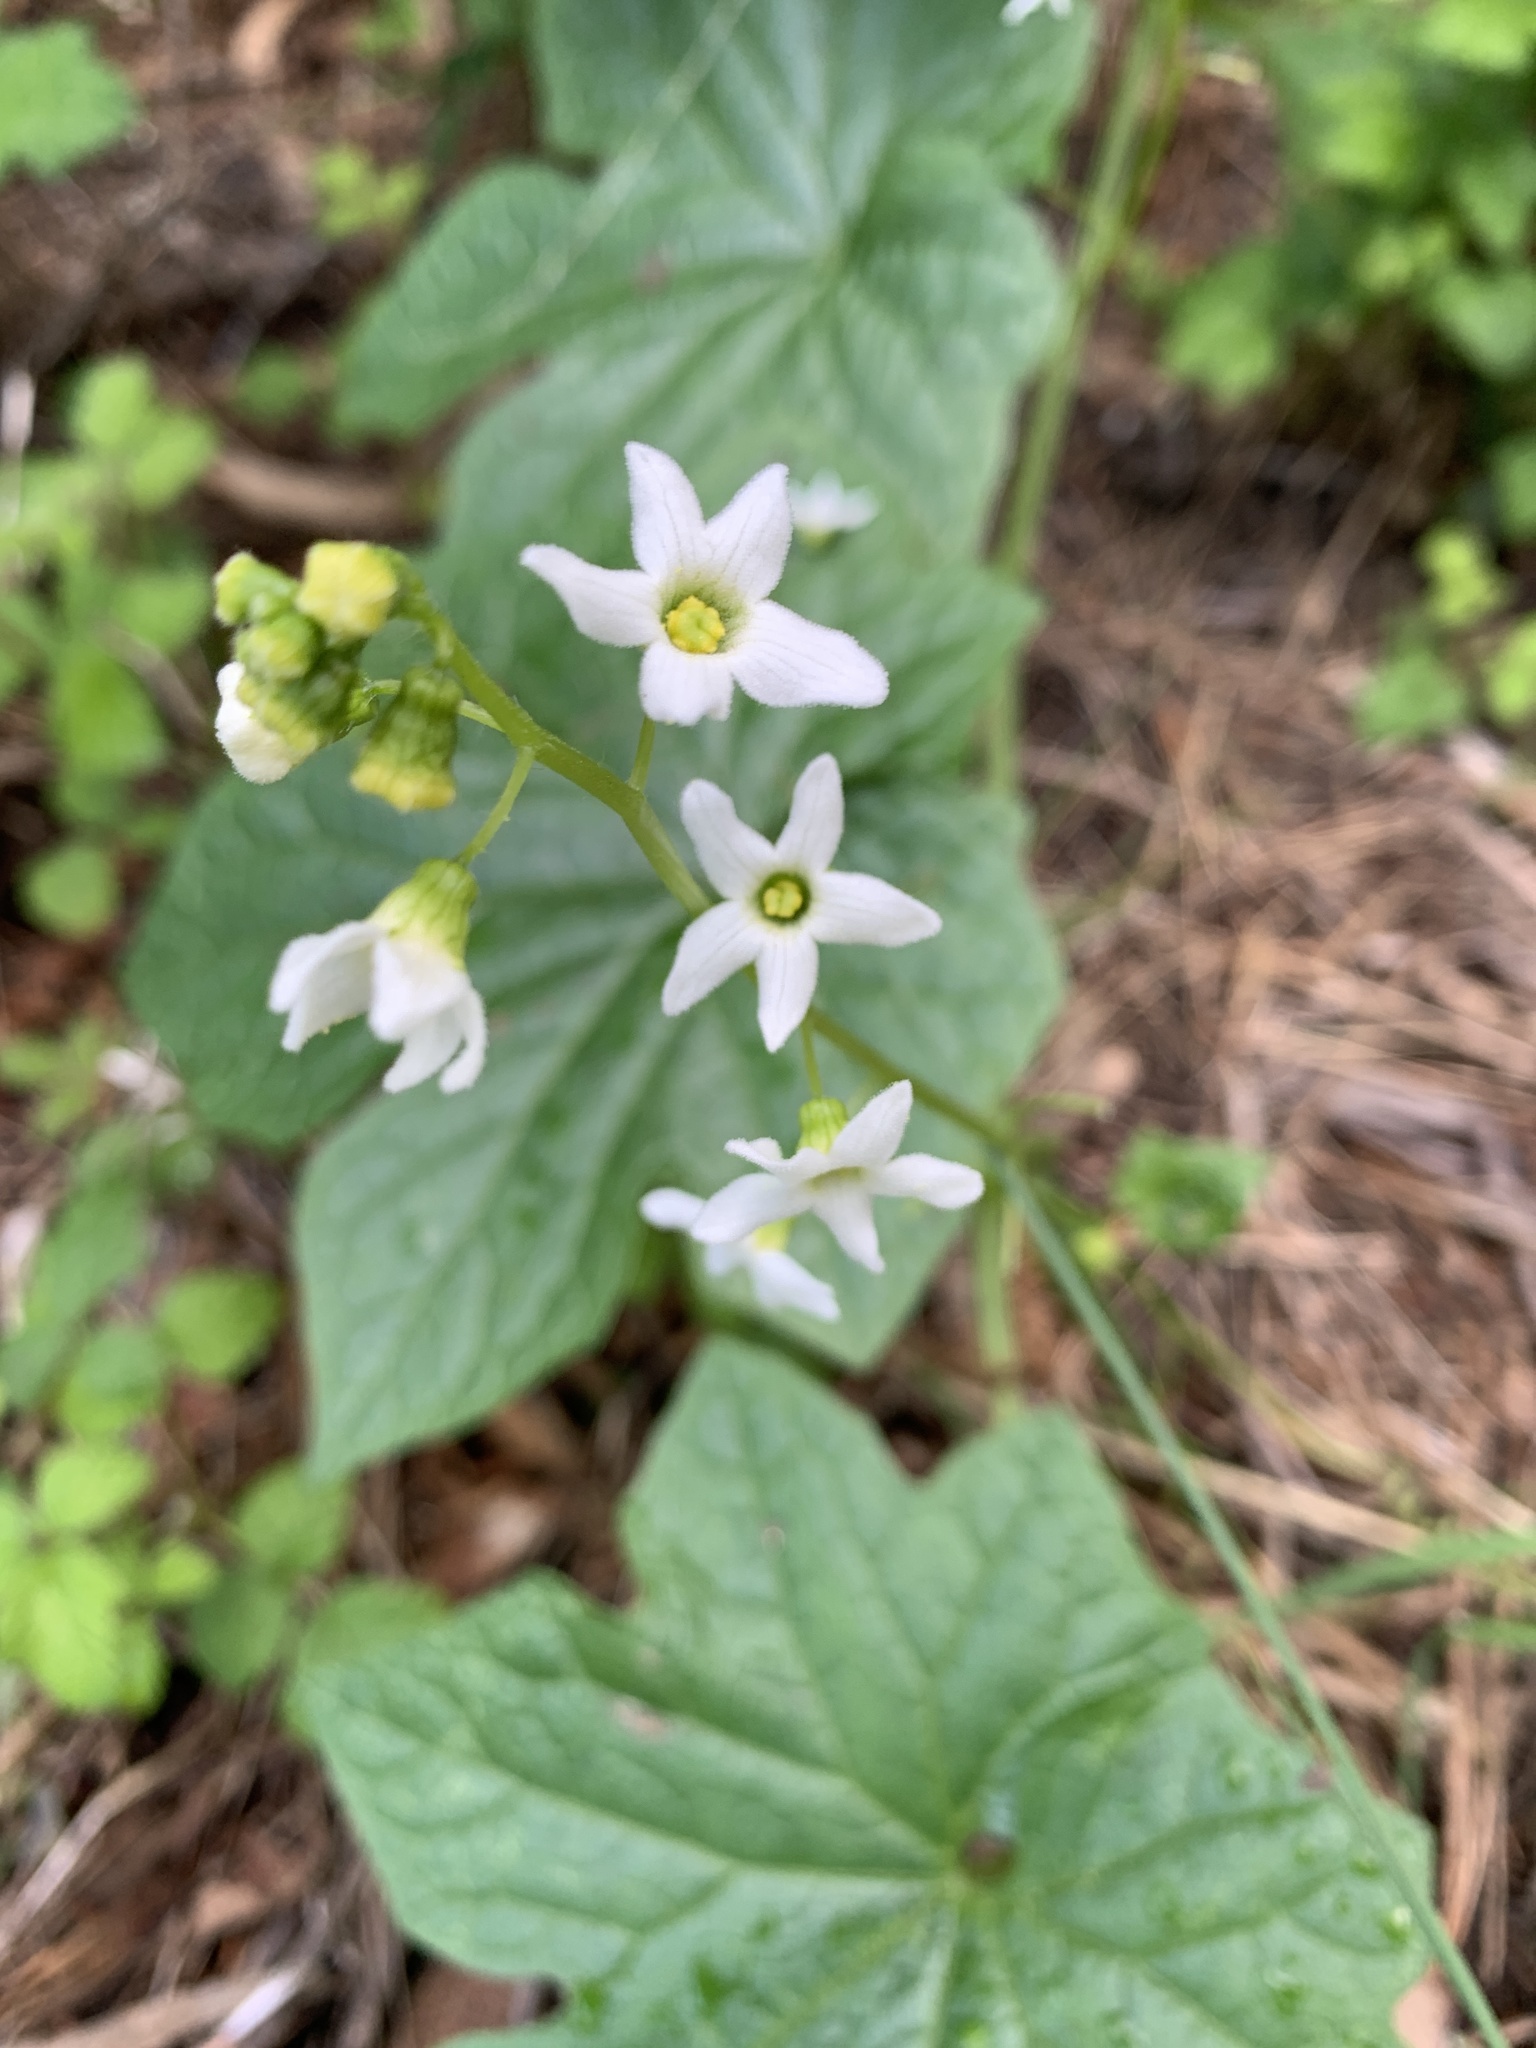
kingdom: Plantae
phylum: Tracheophyta
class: Magnoliopsida
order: Cucurbitales
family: Cucurbitaceae
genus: Marah
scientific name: Marah fabacea
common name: California manroot
